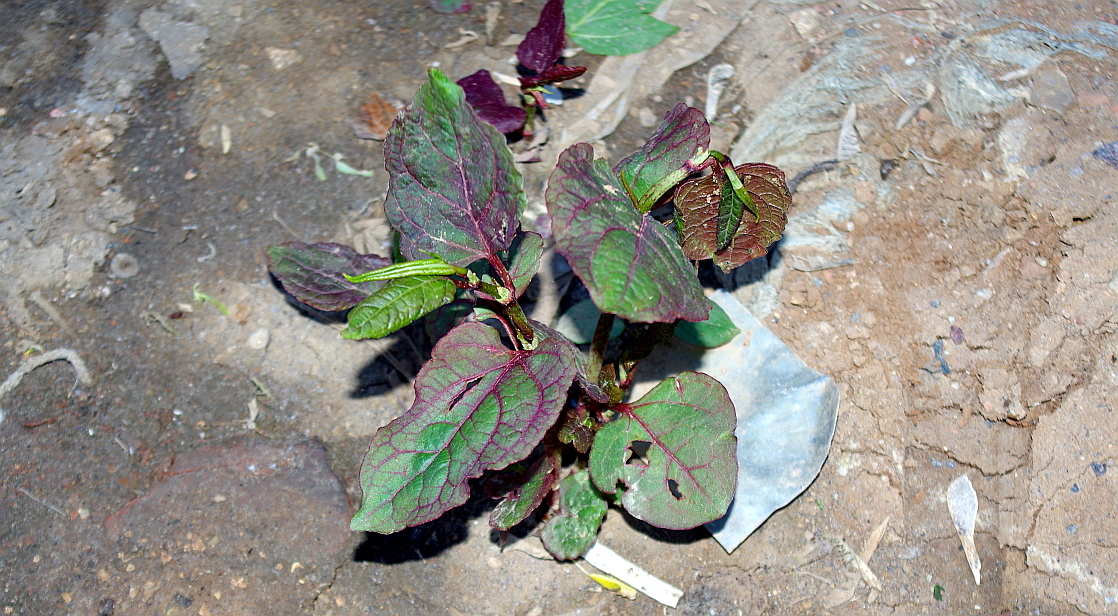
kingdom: Plantae
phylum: Tracheophyta
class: Magnoliopsida
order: Caryophyllales
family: Polygonaceae
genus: Reynoutria
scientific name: Reynoutria bohemica
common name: Bohemian knotweed
